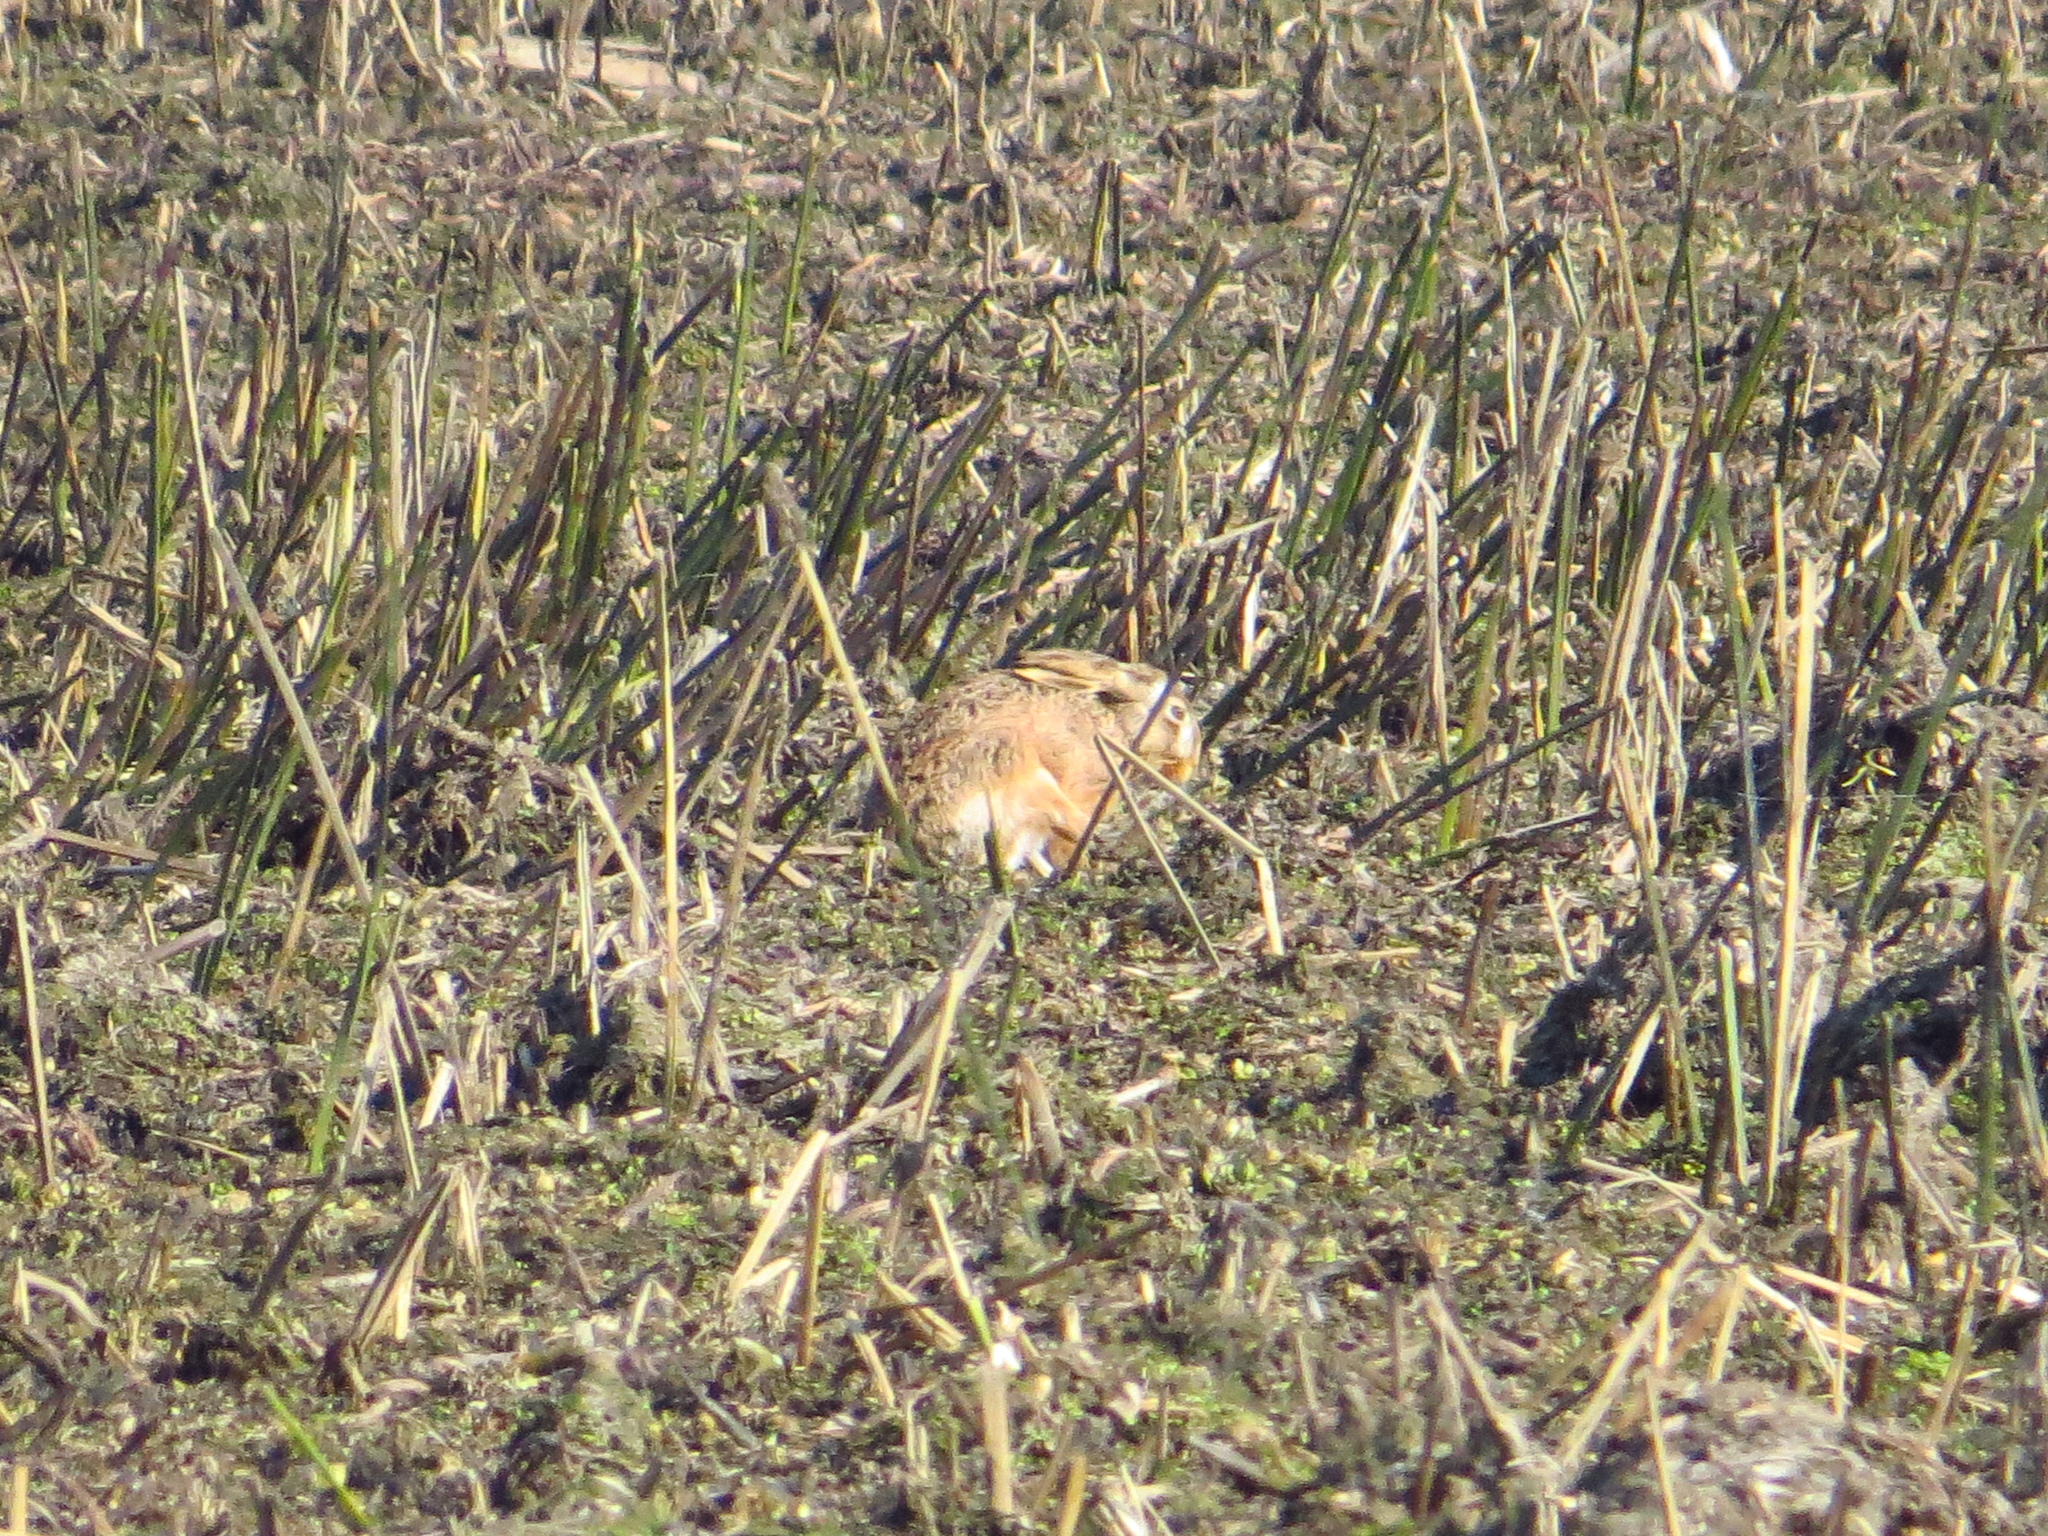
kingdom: Animalia
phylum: Chordata
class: Mammalia
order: Lagomorpha
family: Leporidae
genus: Lepus
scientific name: Lepus europaeus
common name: European hare
